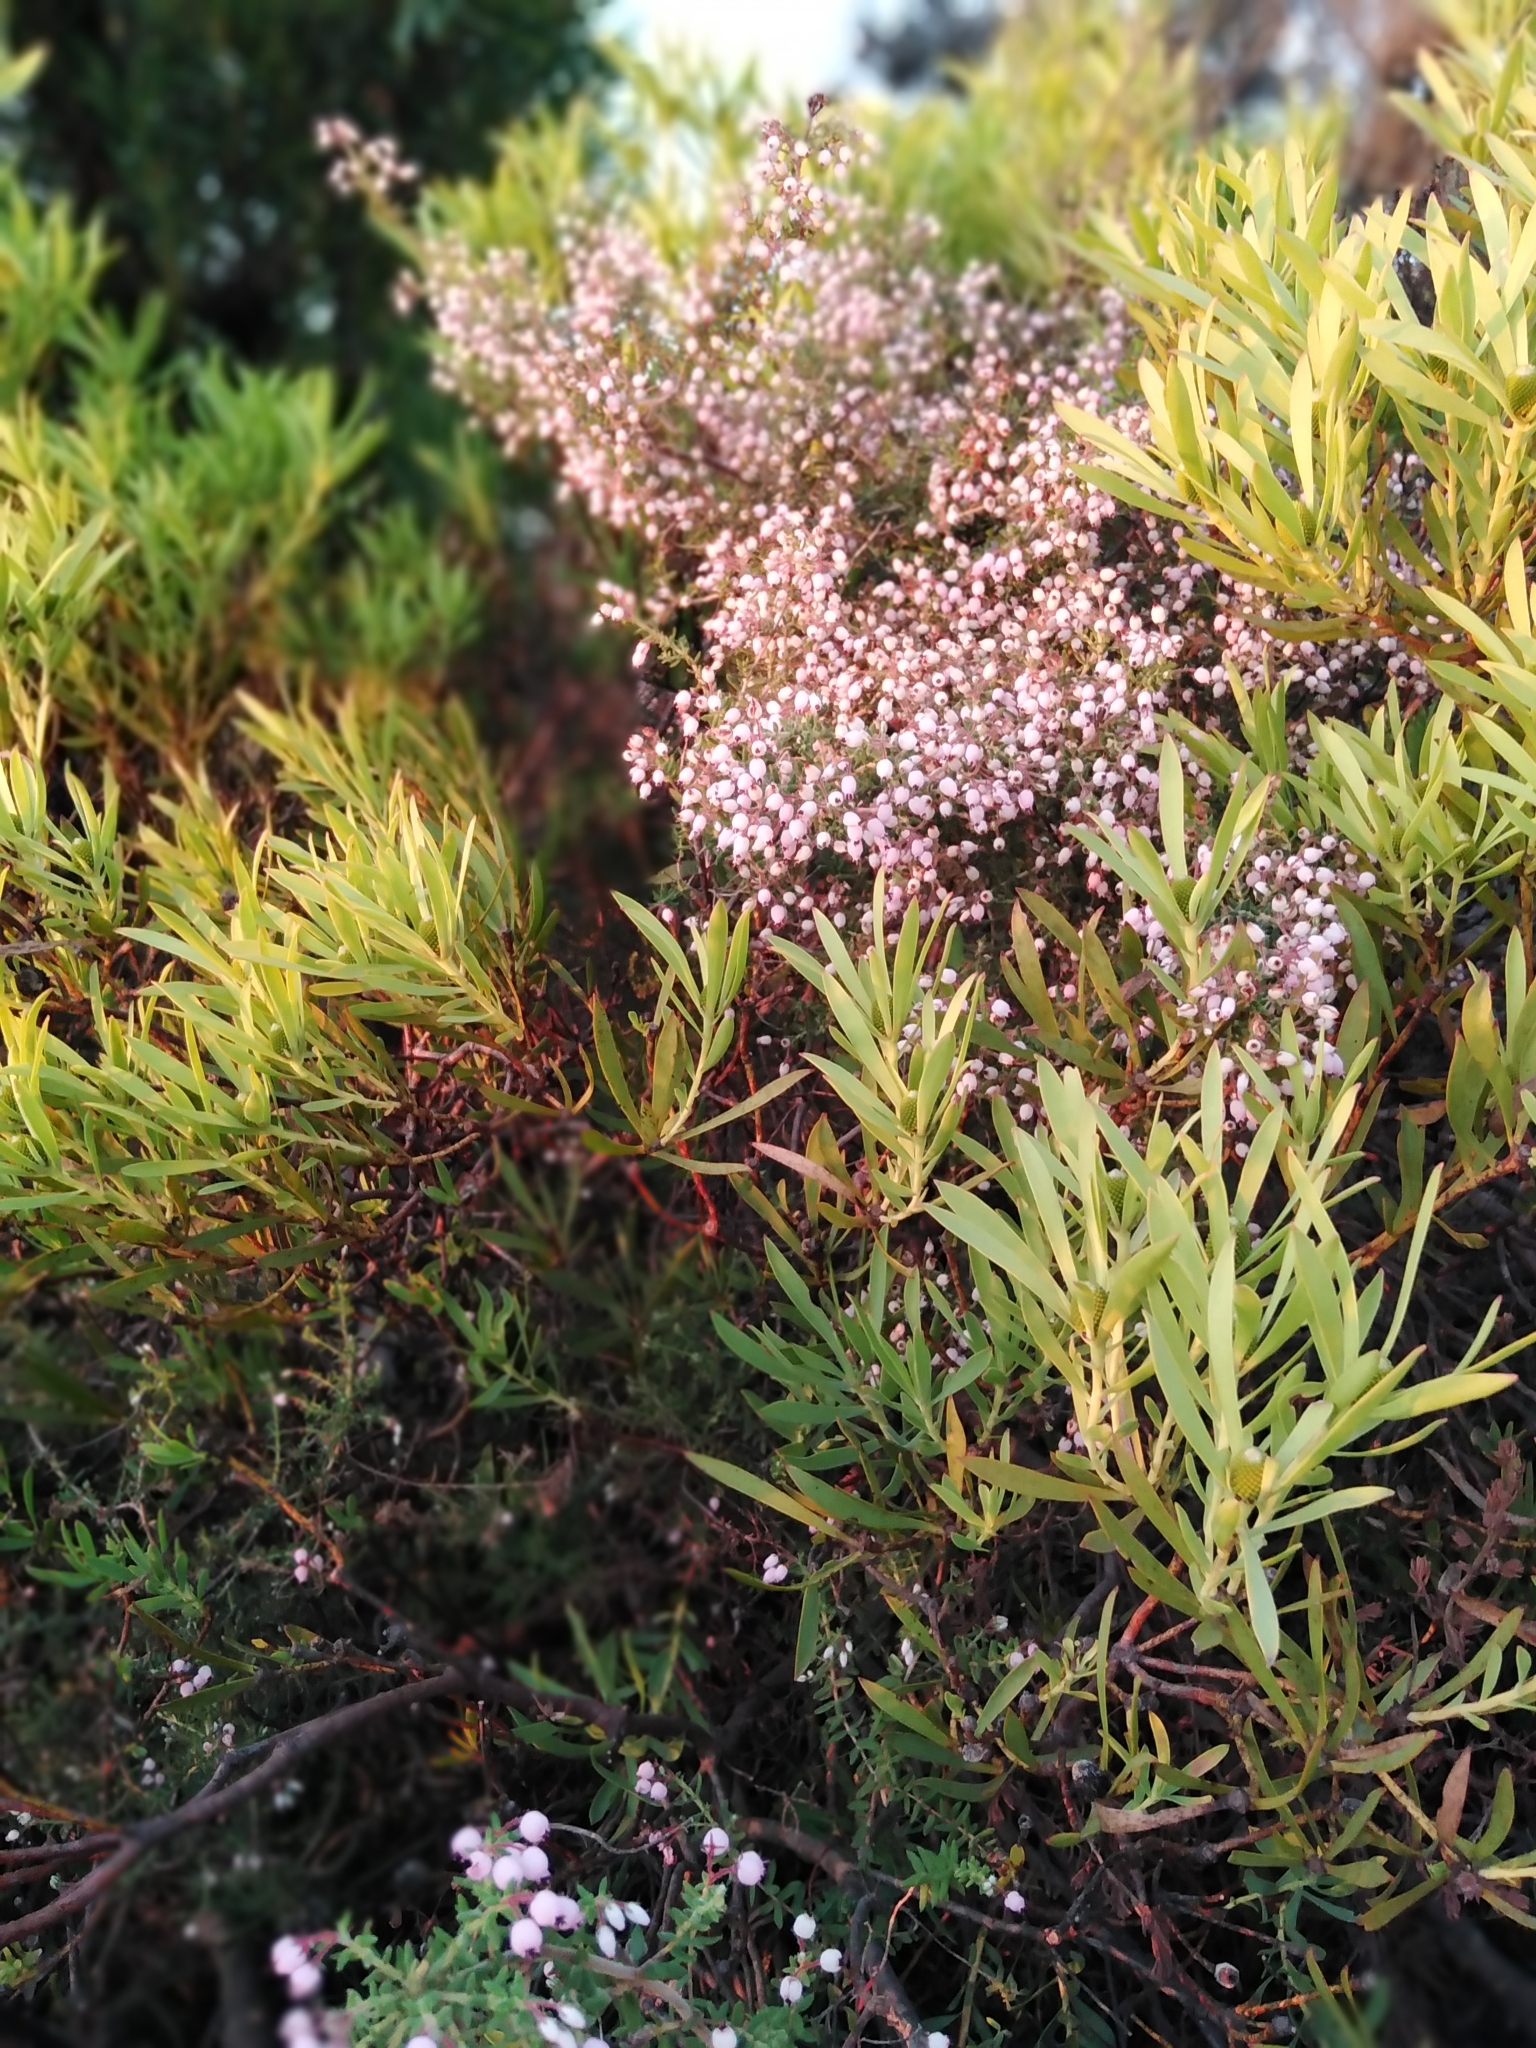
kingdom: Plantae
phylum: Tracheophyta
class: Magnoliopsida
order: Ericales
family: Ericaceae
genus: Erica
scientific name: Erica hirta
